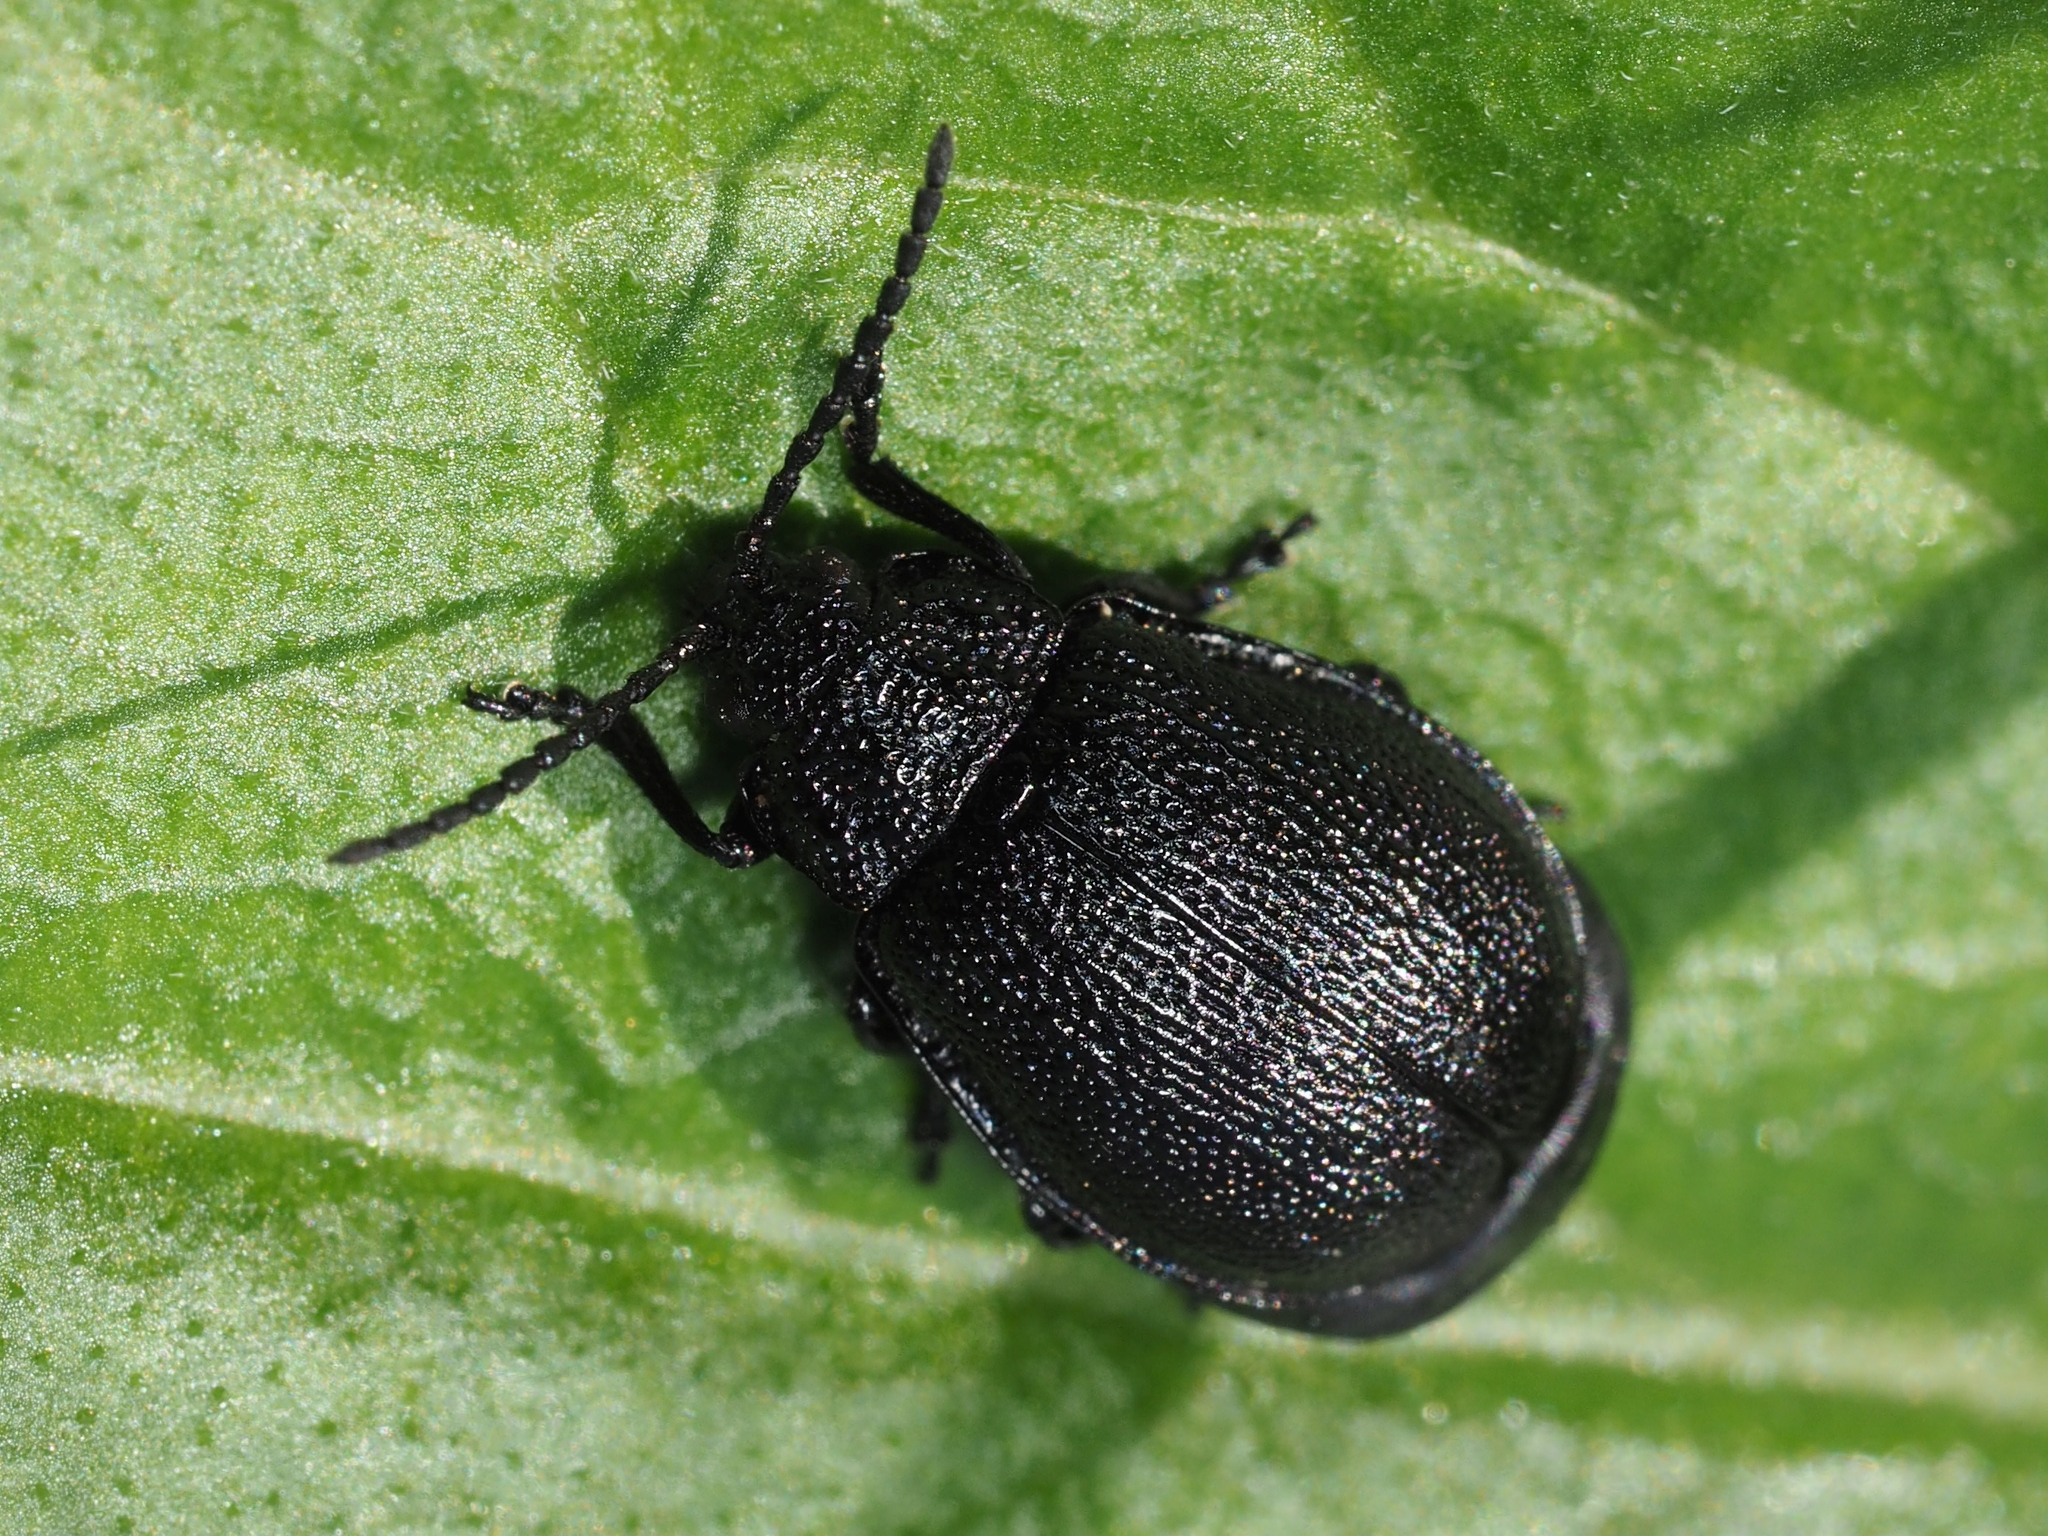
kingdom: Animalia
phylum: Arthropoda
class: Insecta
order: Coleoptera
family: Chrysomelidae
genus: Galeruca
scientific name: Galeruca tanaceti
